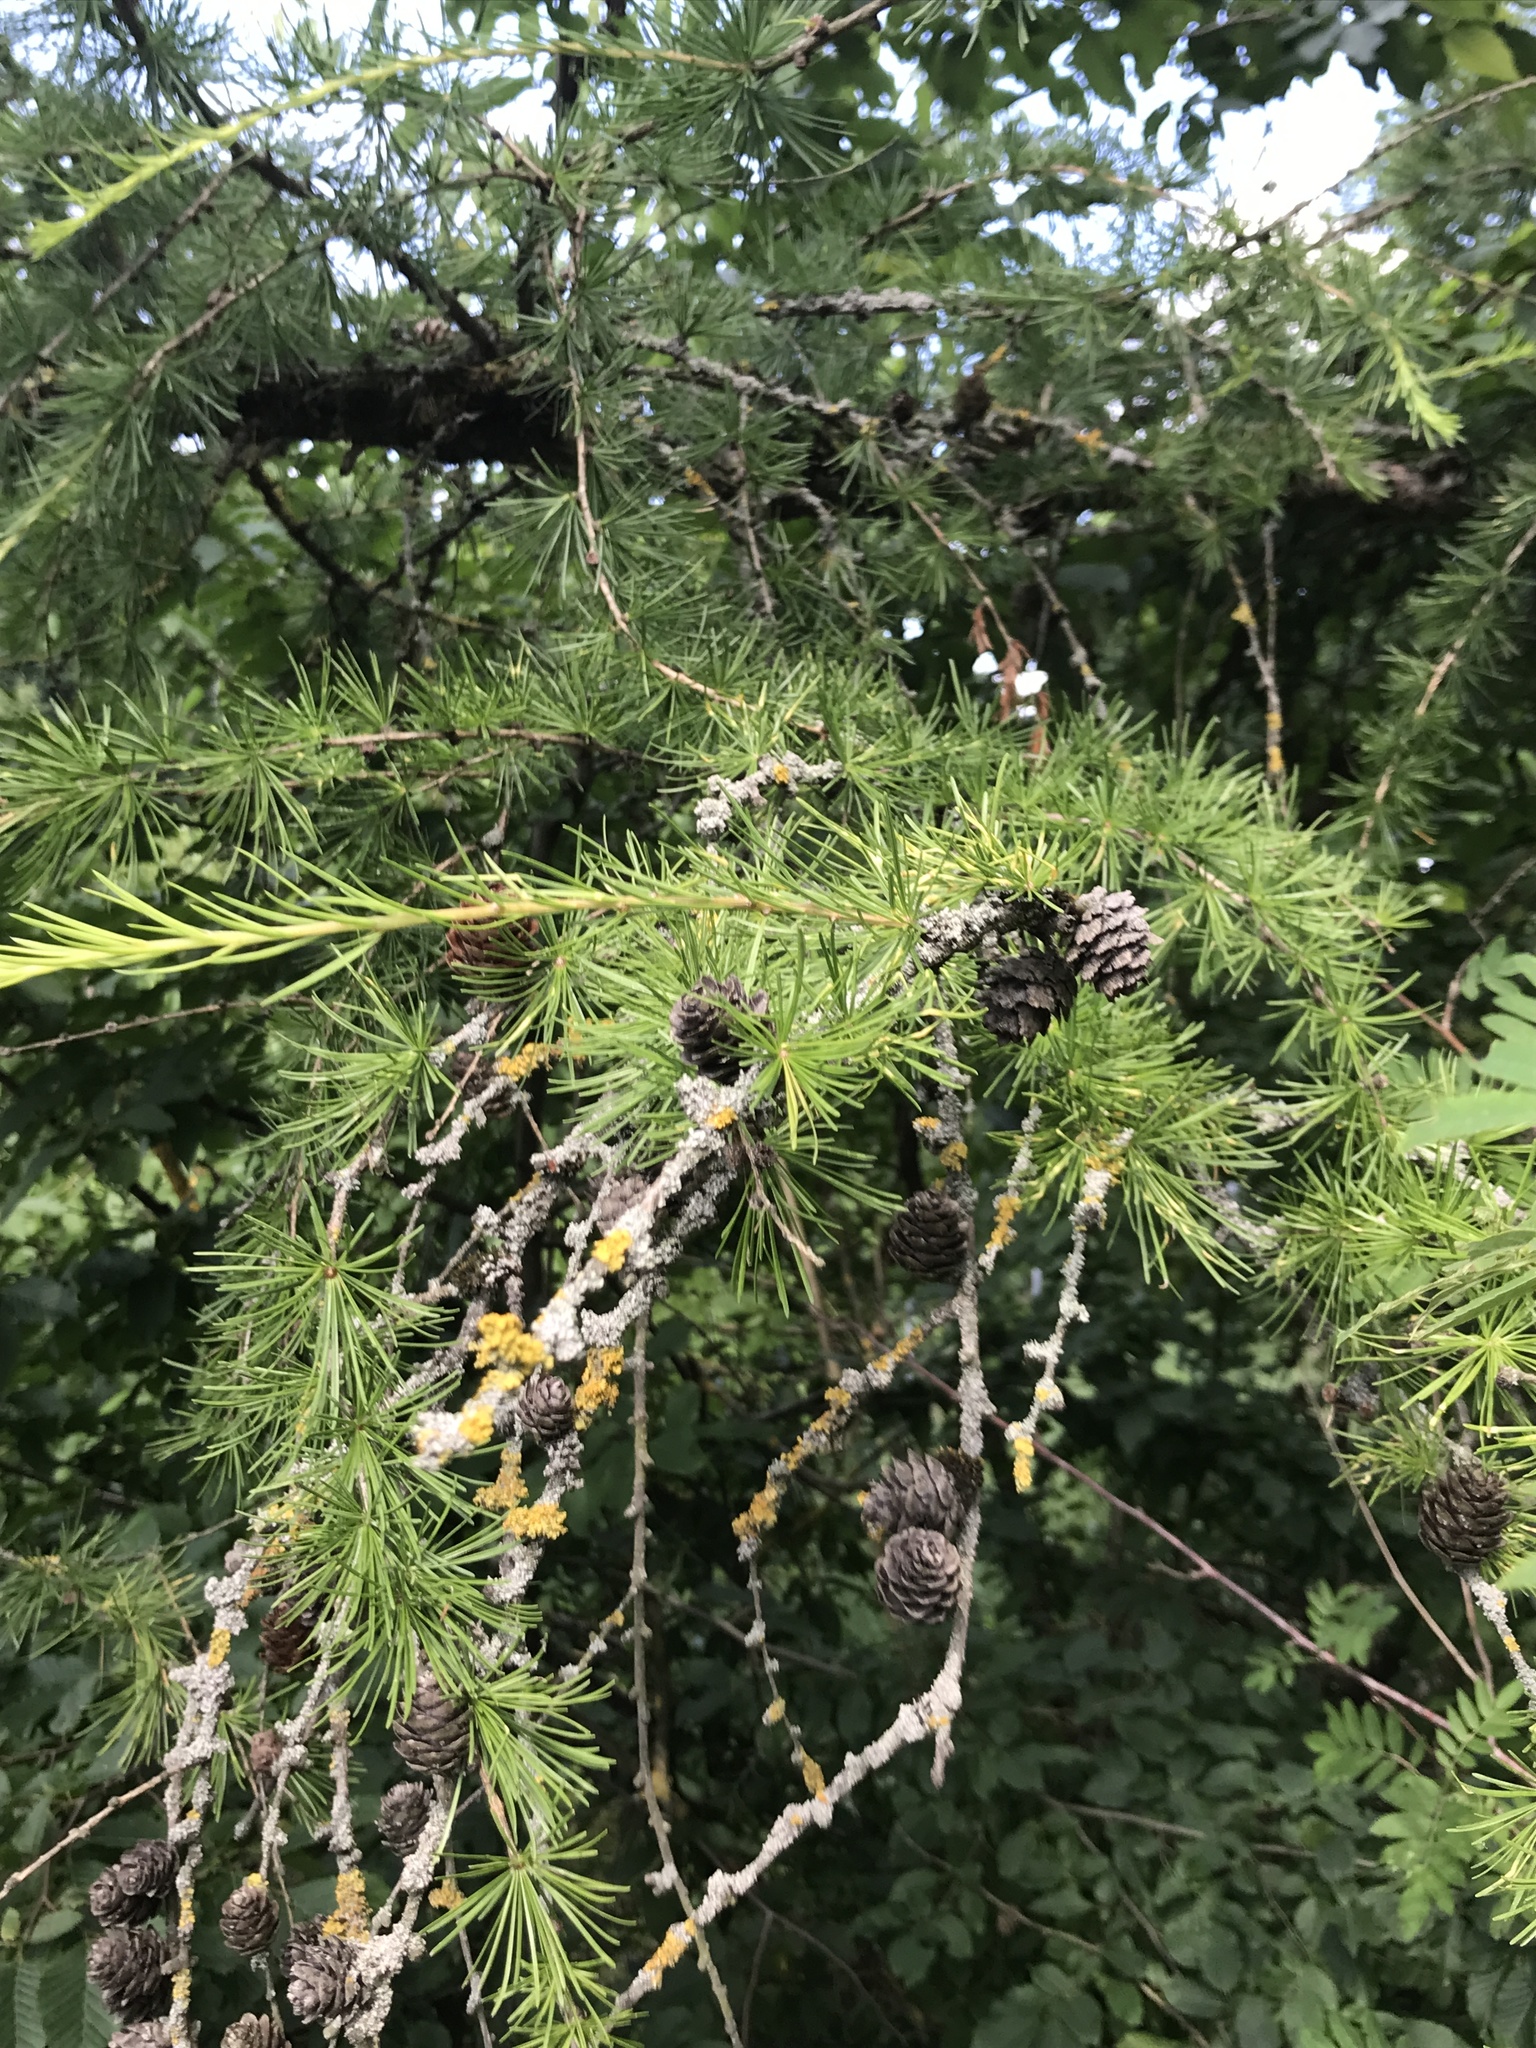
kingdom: Plantae
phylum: Tracheophyta
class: Pinopsida
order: Pinales
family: Pinaceae
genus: Larix
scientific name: Larix decidua
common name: European larch
